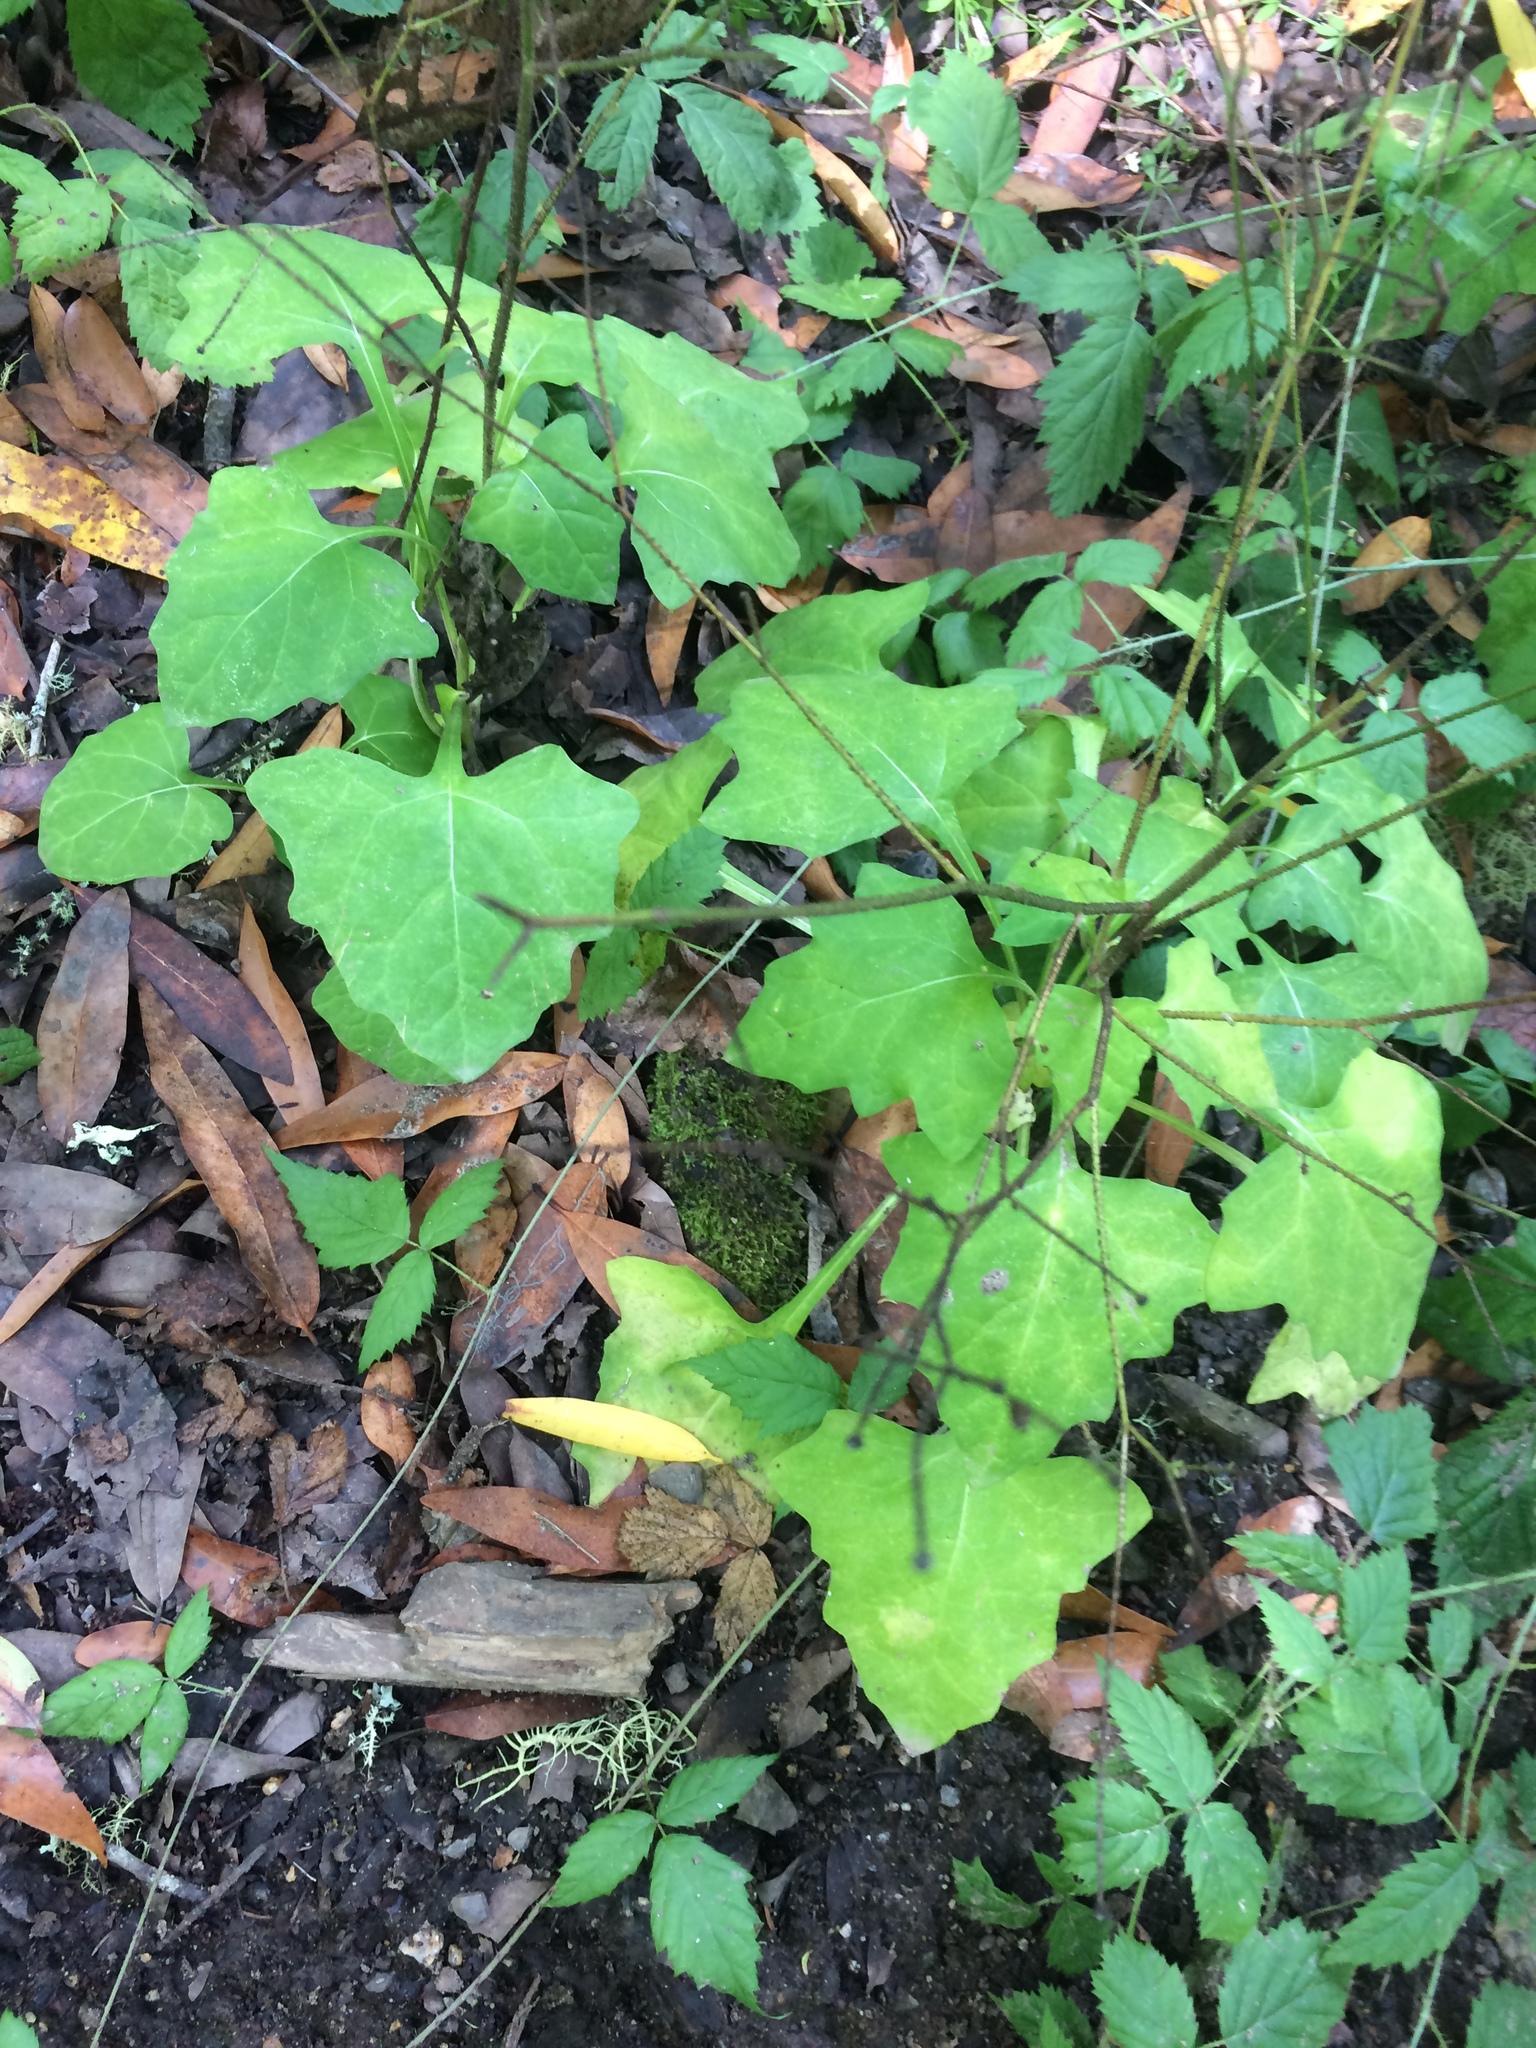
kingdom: Plantae
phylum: Tracheophyta
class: Magnoliopsida
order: Asterales
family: Asteraceae
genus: Adenocaulon
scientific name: Adenocaulon bicolor
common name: Trailplant
